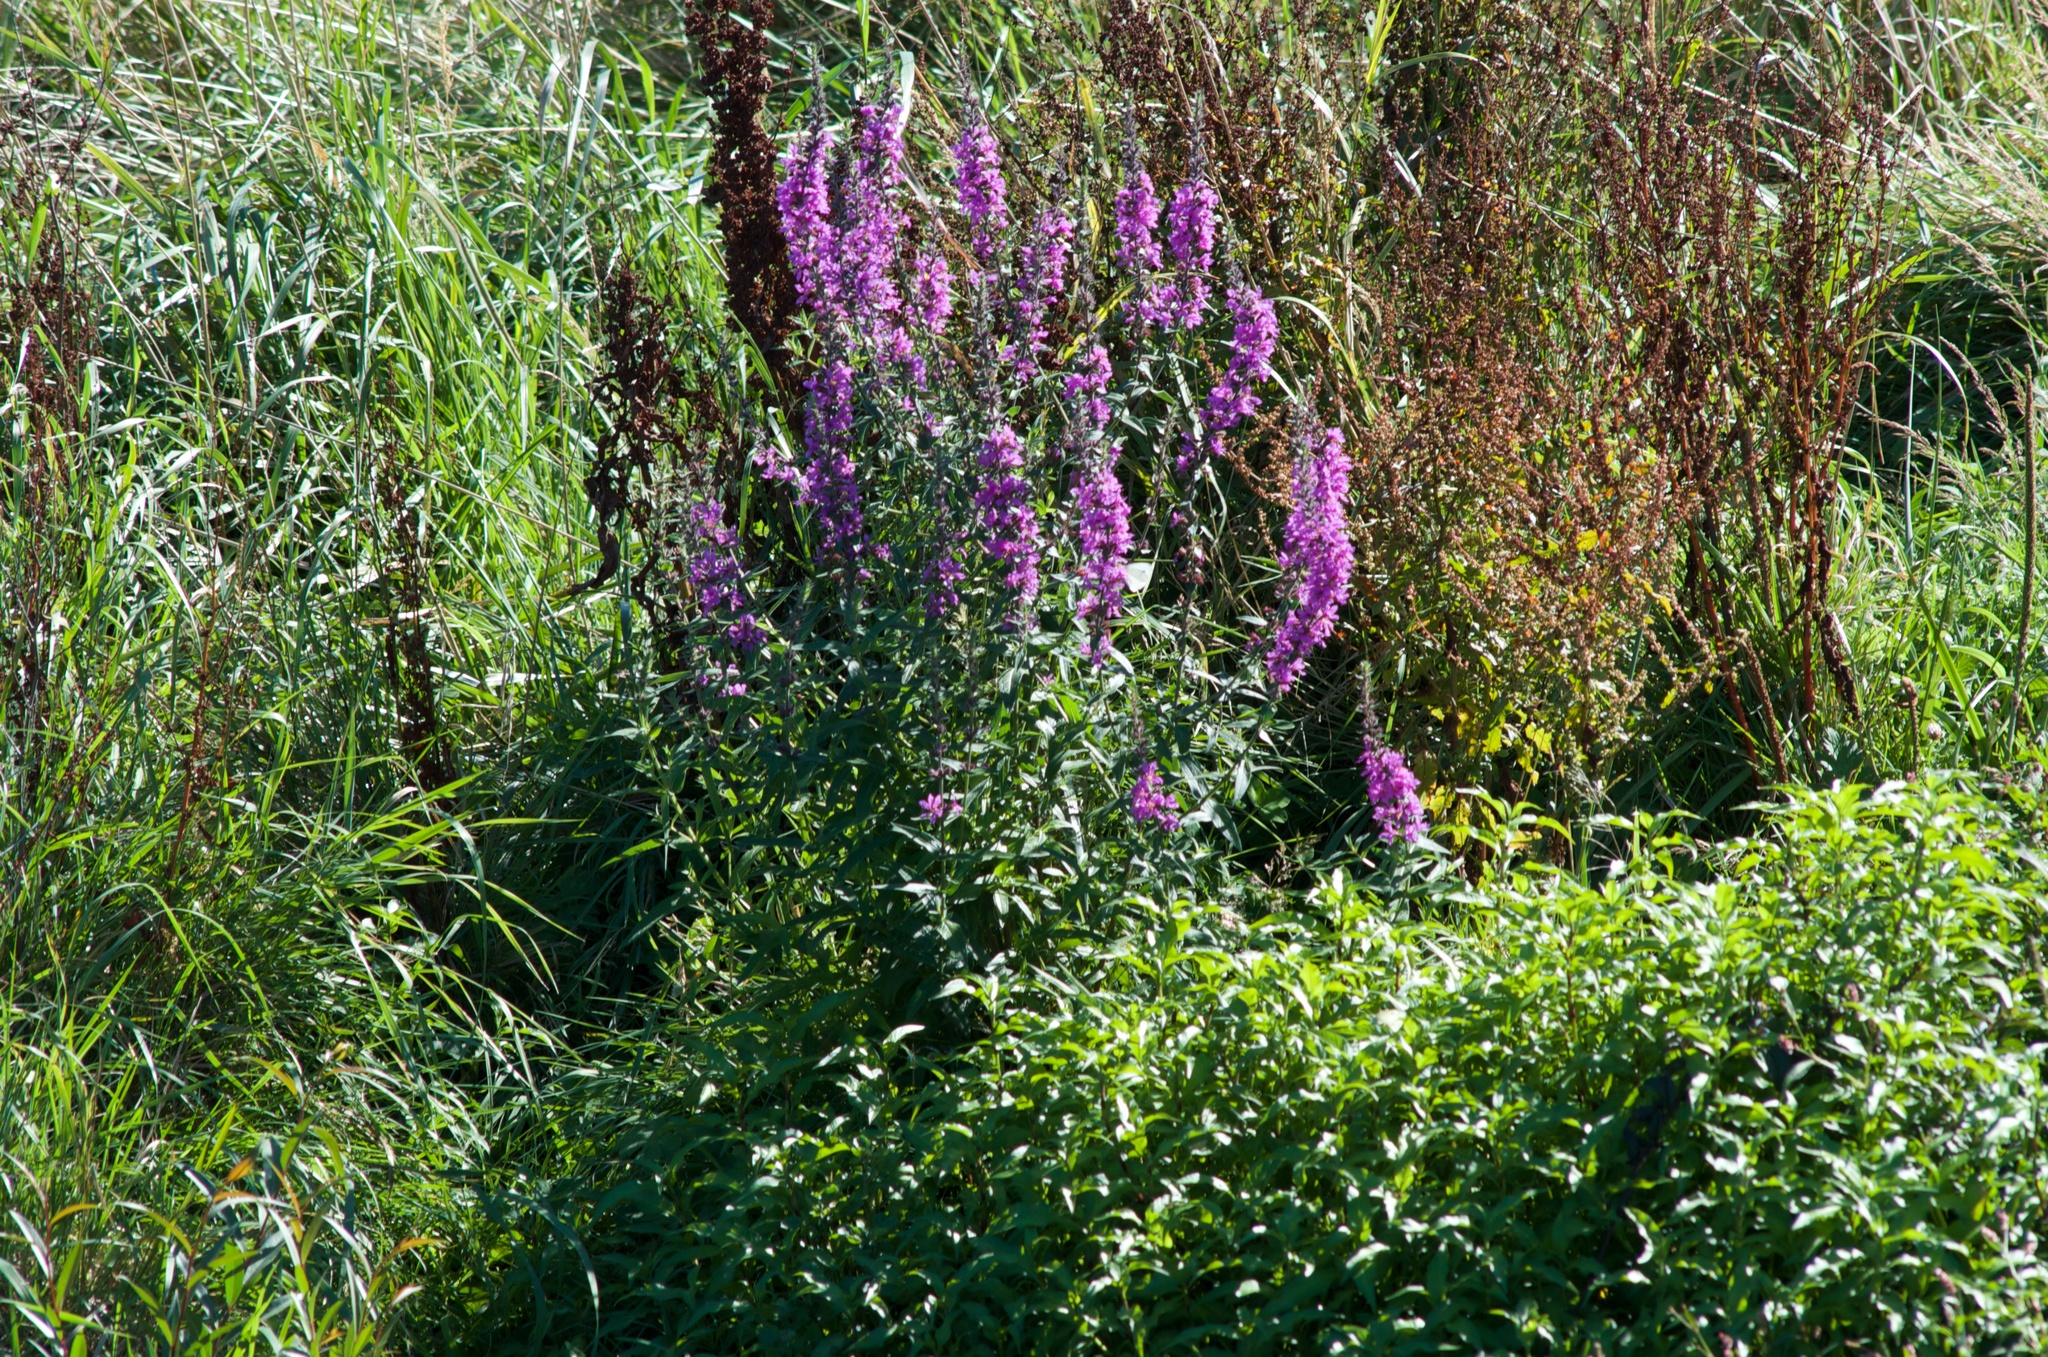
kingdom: Plantae
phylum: Tracheophyta
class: Magnoliopsida
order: Myrtales
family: Lythraceae
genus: Lythrum
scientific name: Lythrum salicaria
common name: Purple loosestrife
